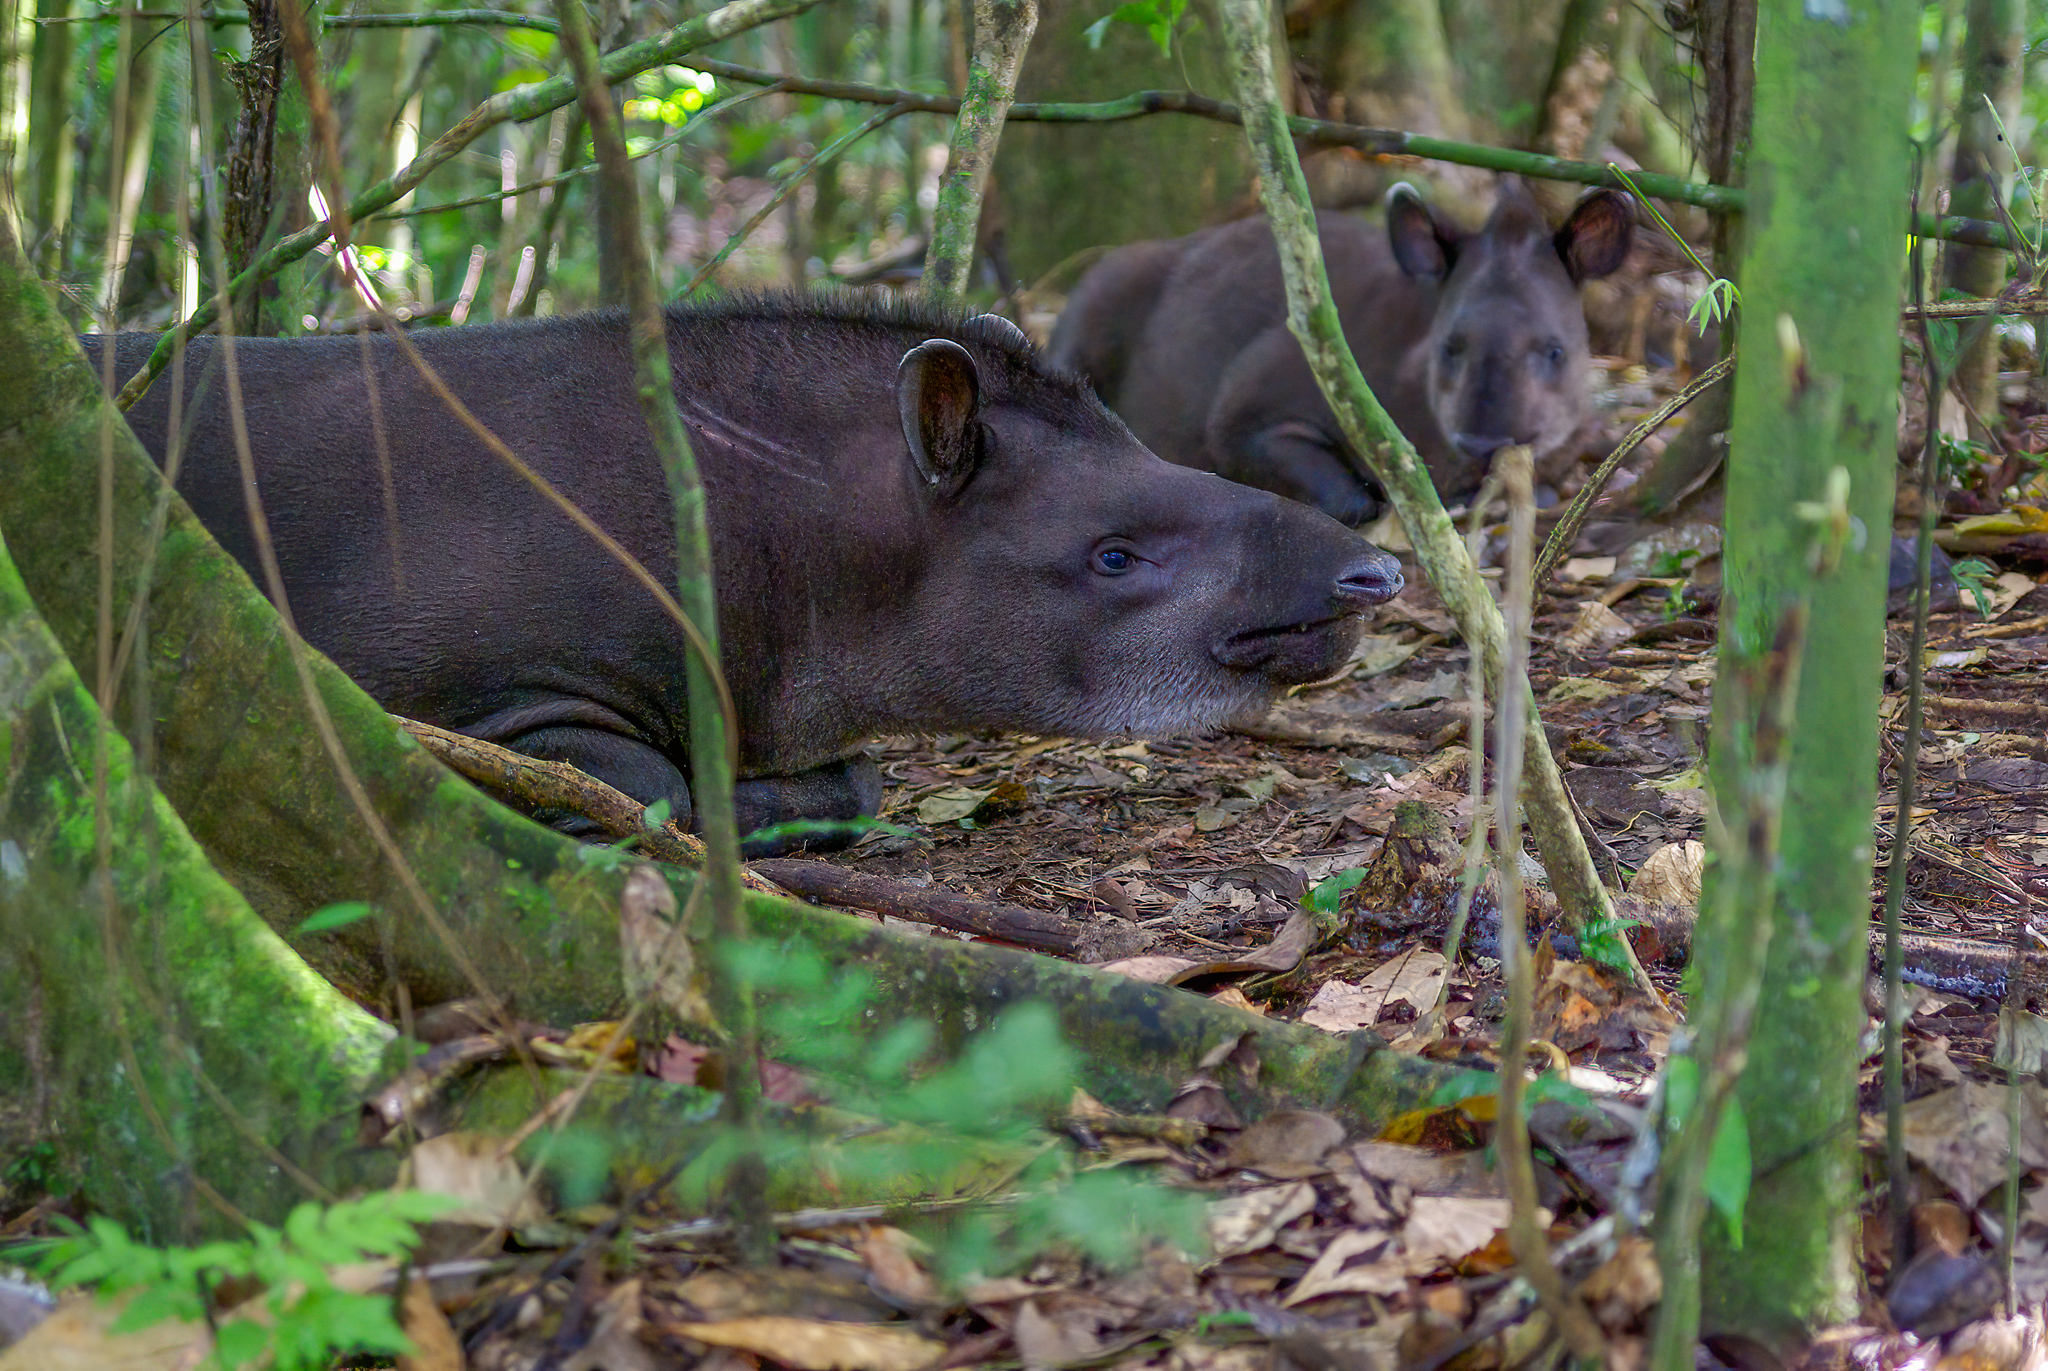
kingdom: Animalia
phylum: Chordata
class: Mammalia
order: Perissodactyla
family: Tapiridae
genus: Tapirus
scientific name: Tapirus terrestris
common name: Brazilian tapir
